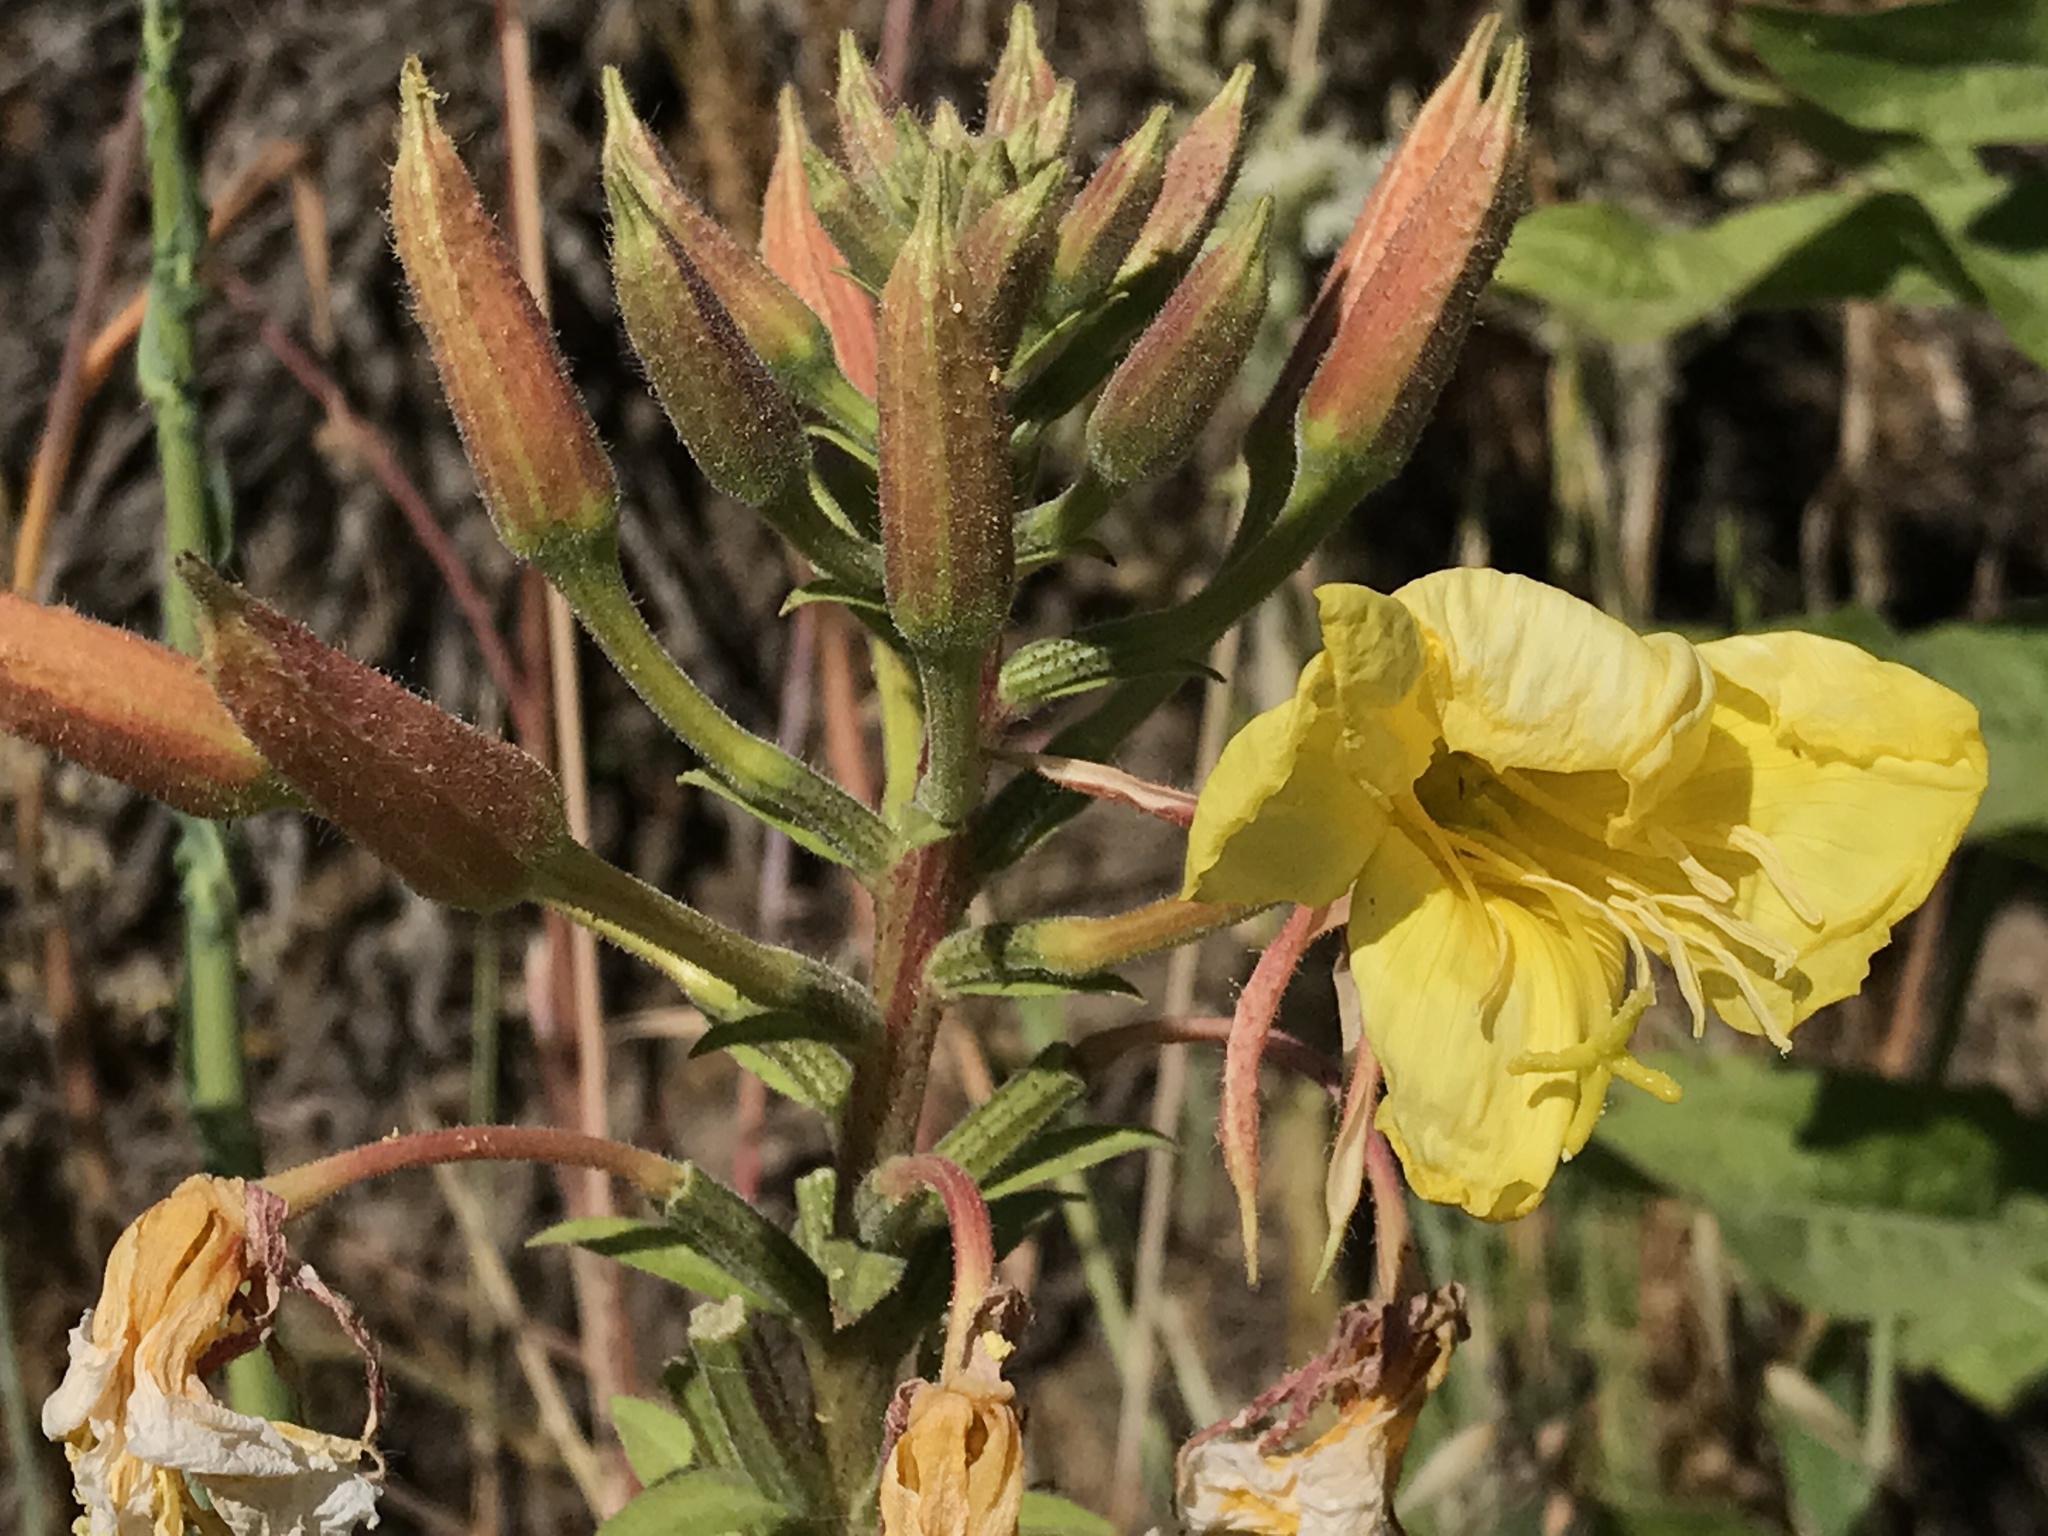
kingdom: Plantae
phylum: Tracheophyta
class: Magnoliopsida
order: Myrtales
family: Onagraceae
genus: Oenothera
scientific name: Oenothera elata
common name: Hooker's evening-primrose
